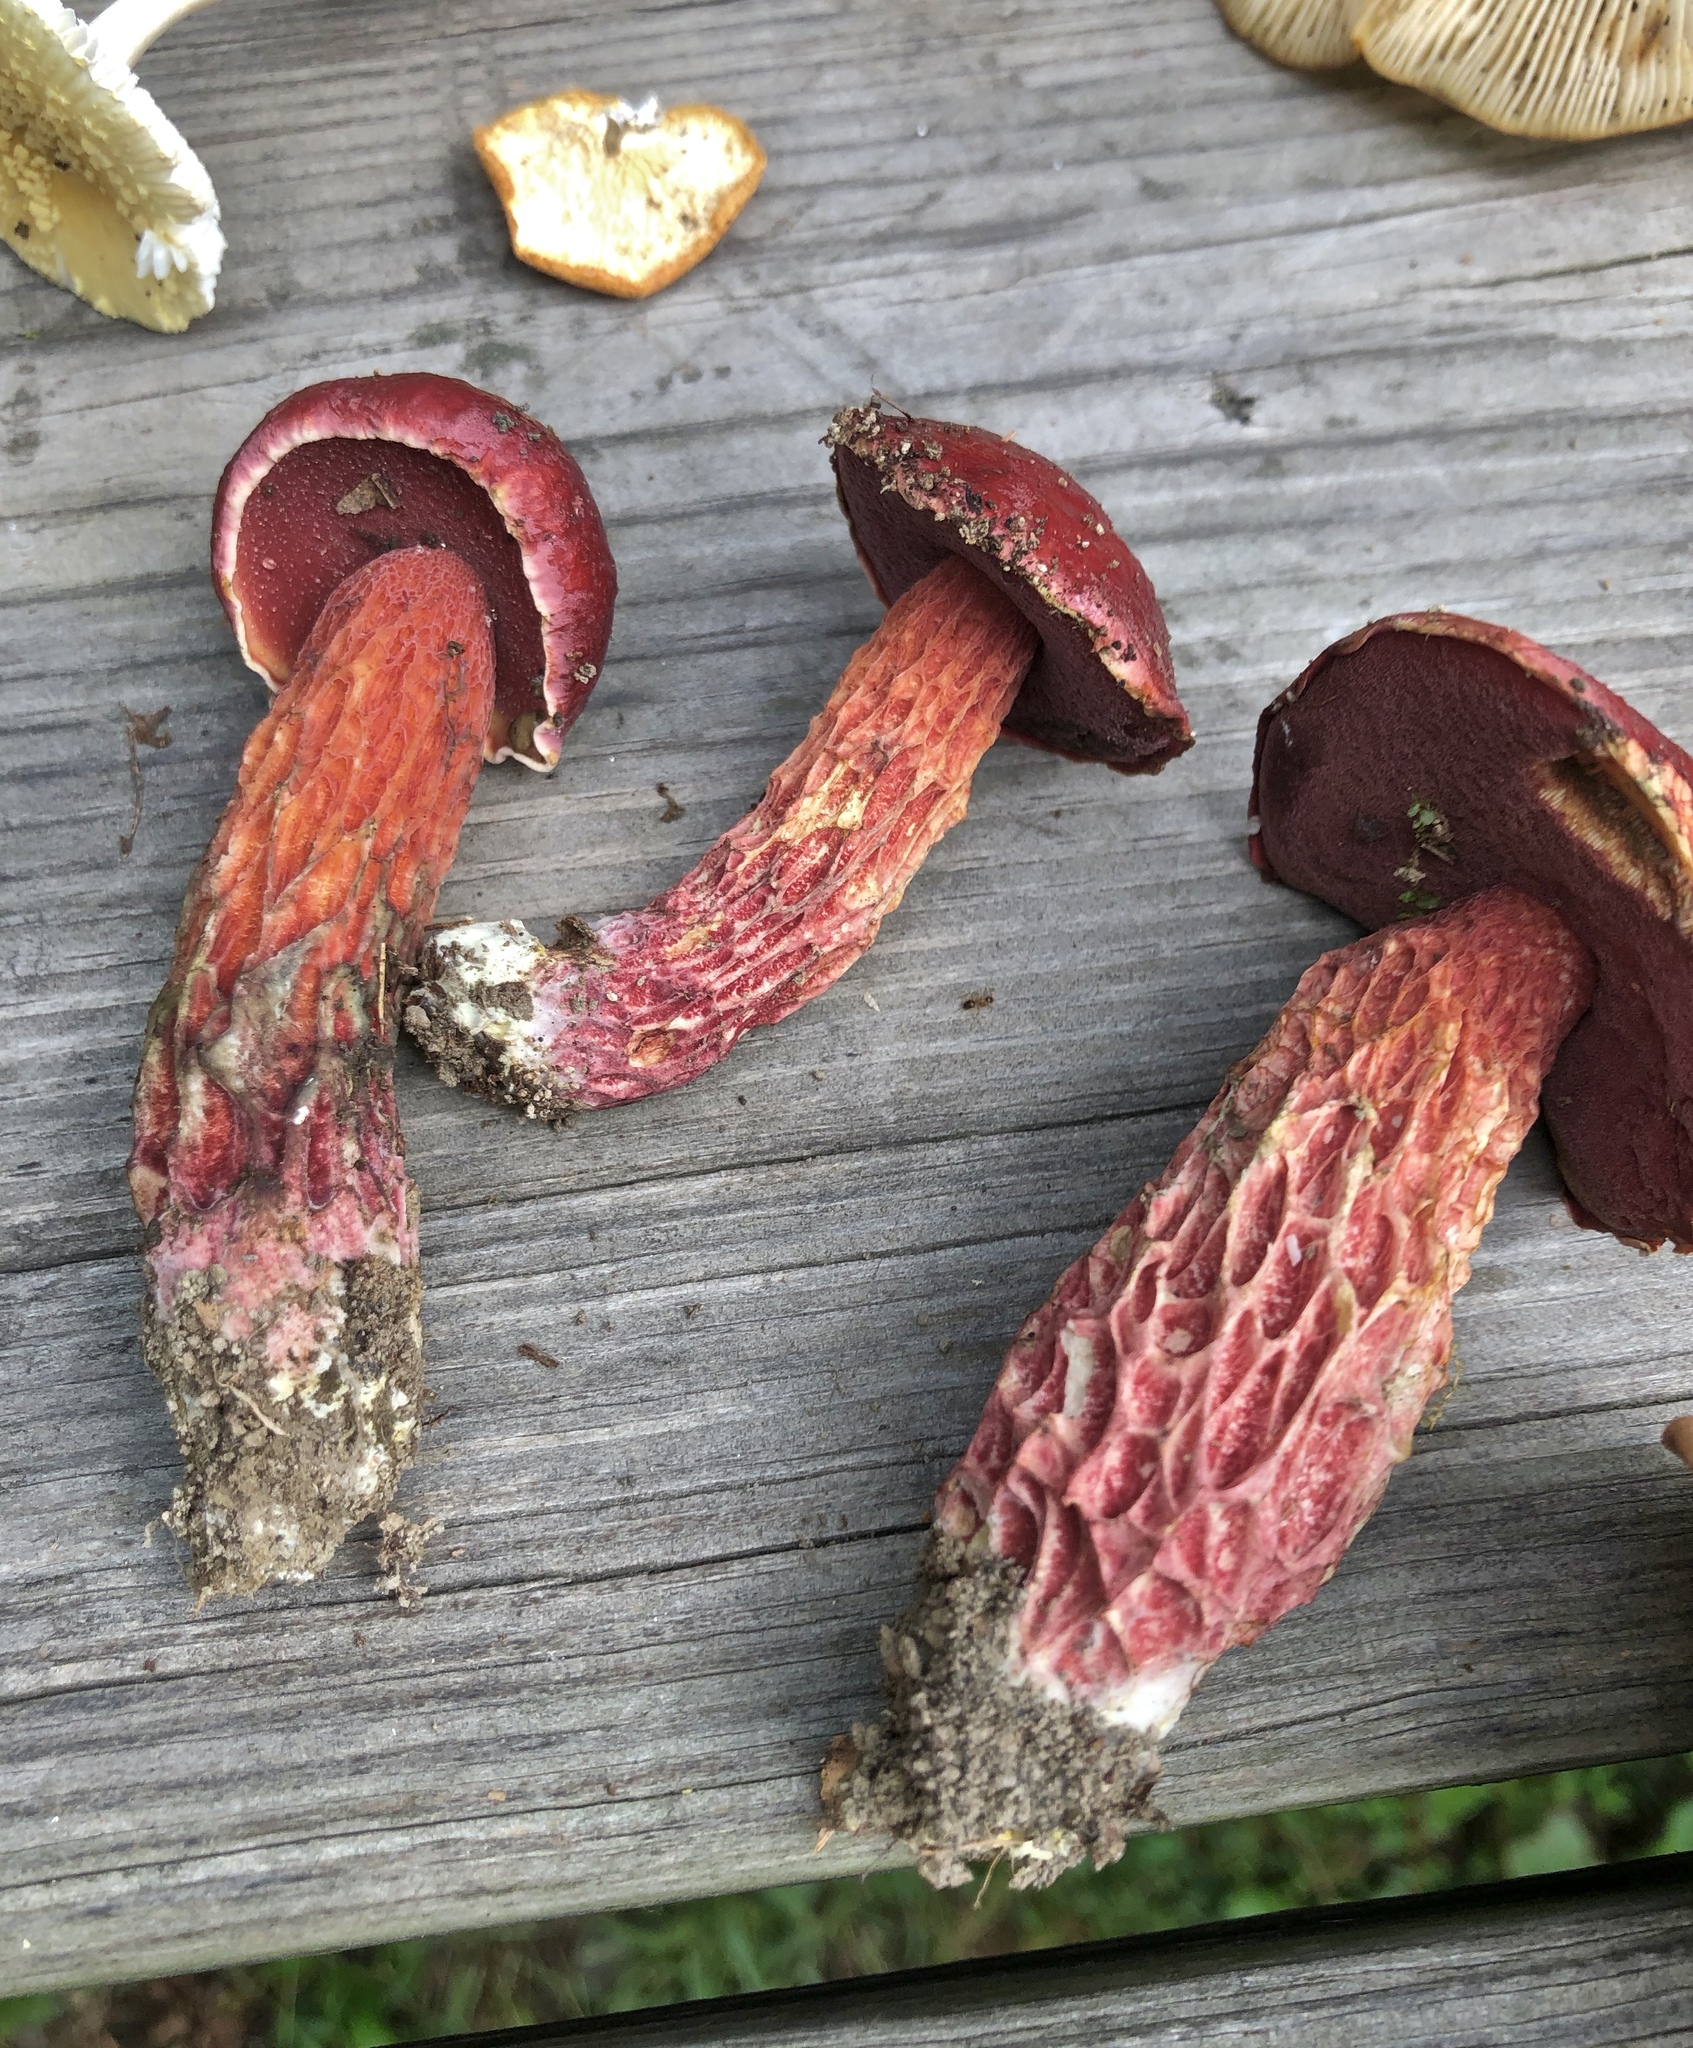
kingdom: Fungi
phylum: Basidiomycota
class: Agaricomycetes
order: Boletales
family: Boletaceae
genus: Butyriboletus
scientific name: Butyriboletus frostii
